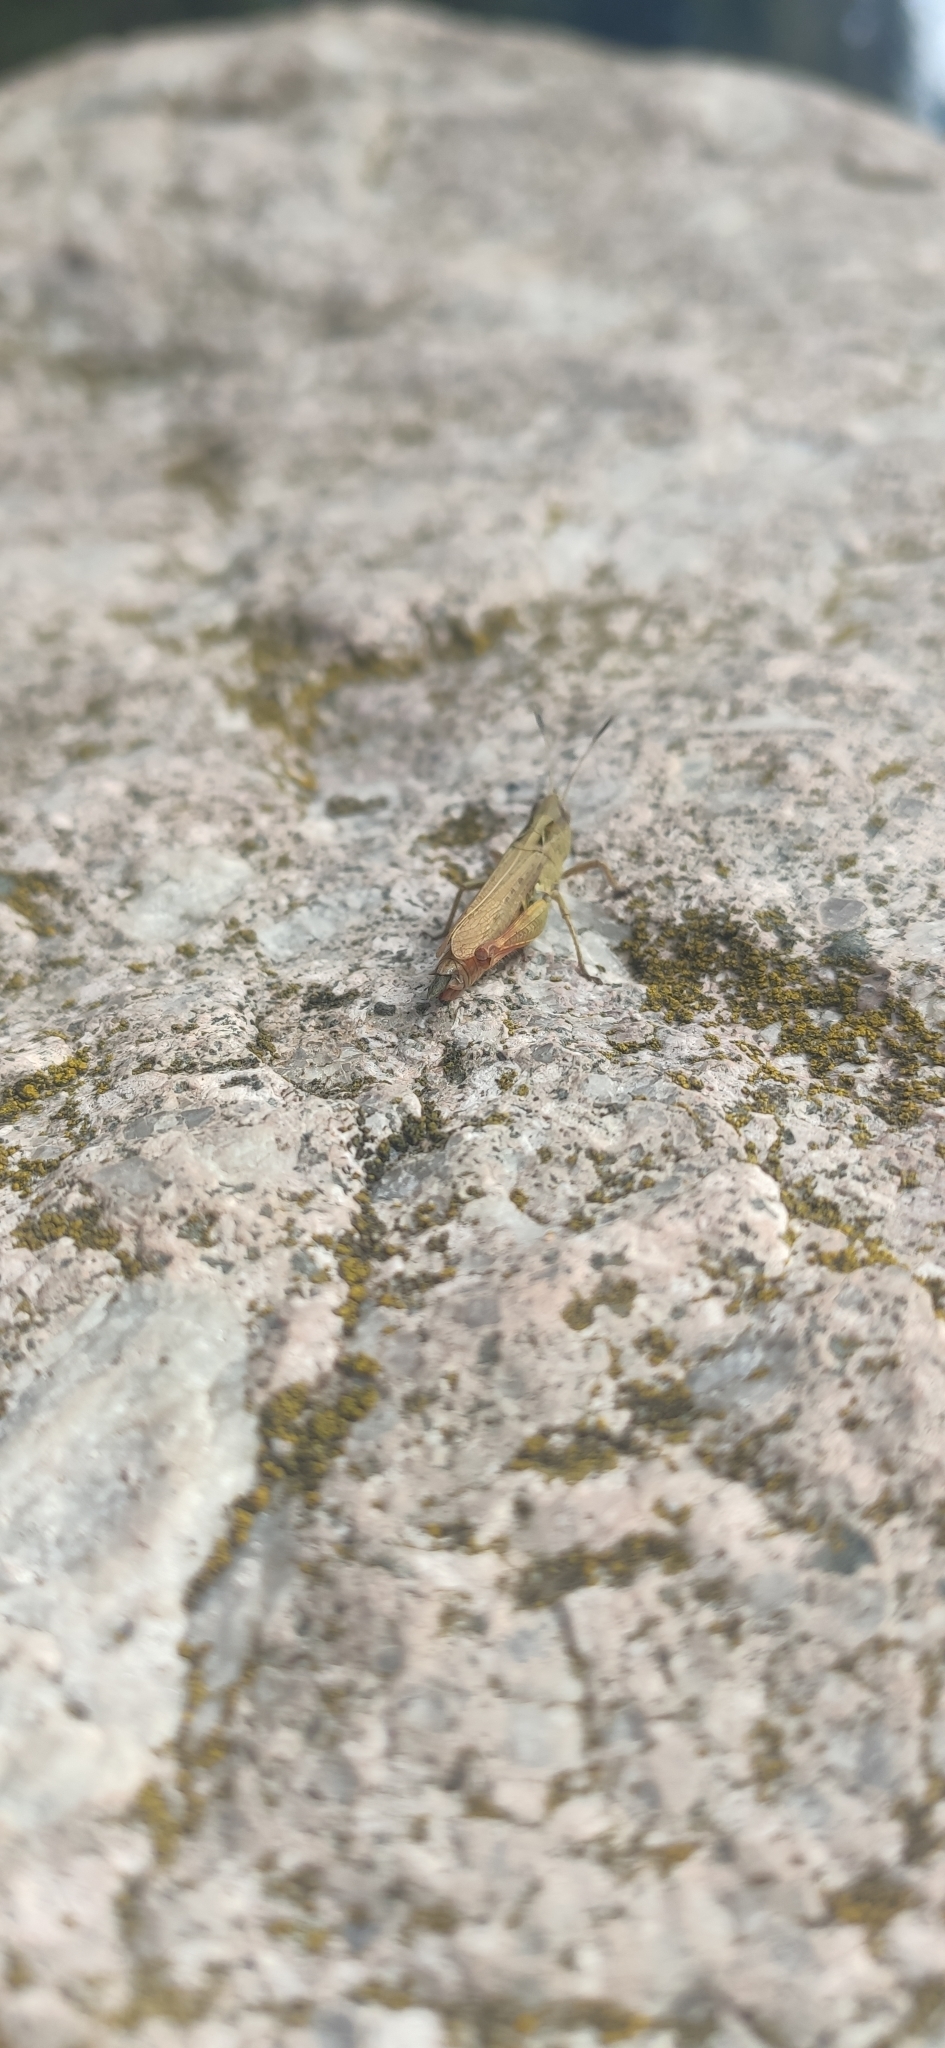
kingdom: Animalia
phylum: Arthropoda
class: Insecta
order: Orthoptera
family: Acrididae
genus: Gomphocerippus
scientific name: Gomphocerippus rufus
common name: Rufous grasshopper
